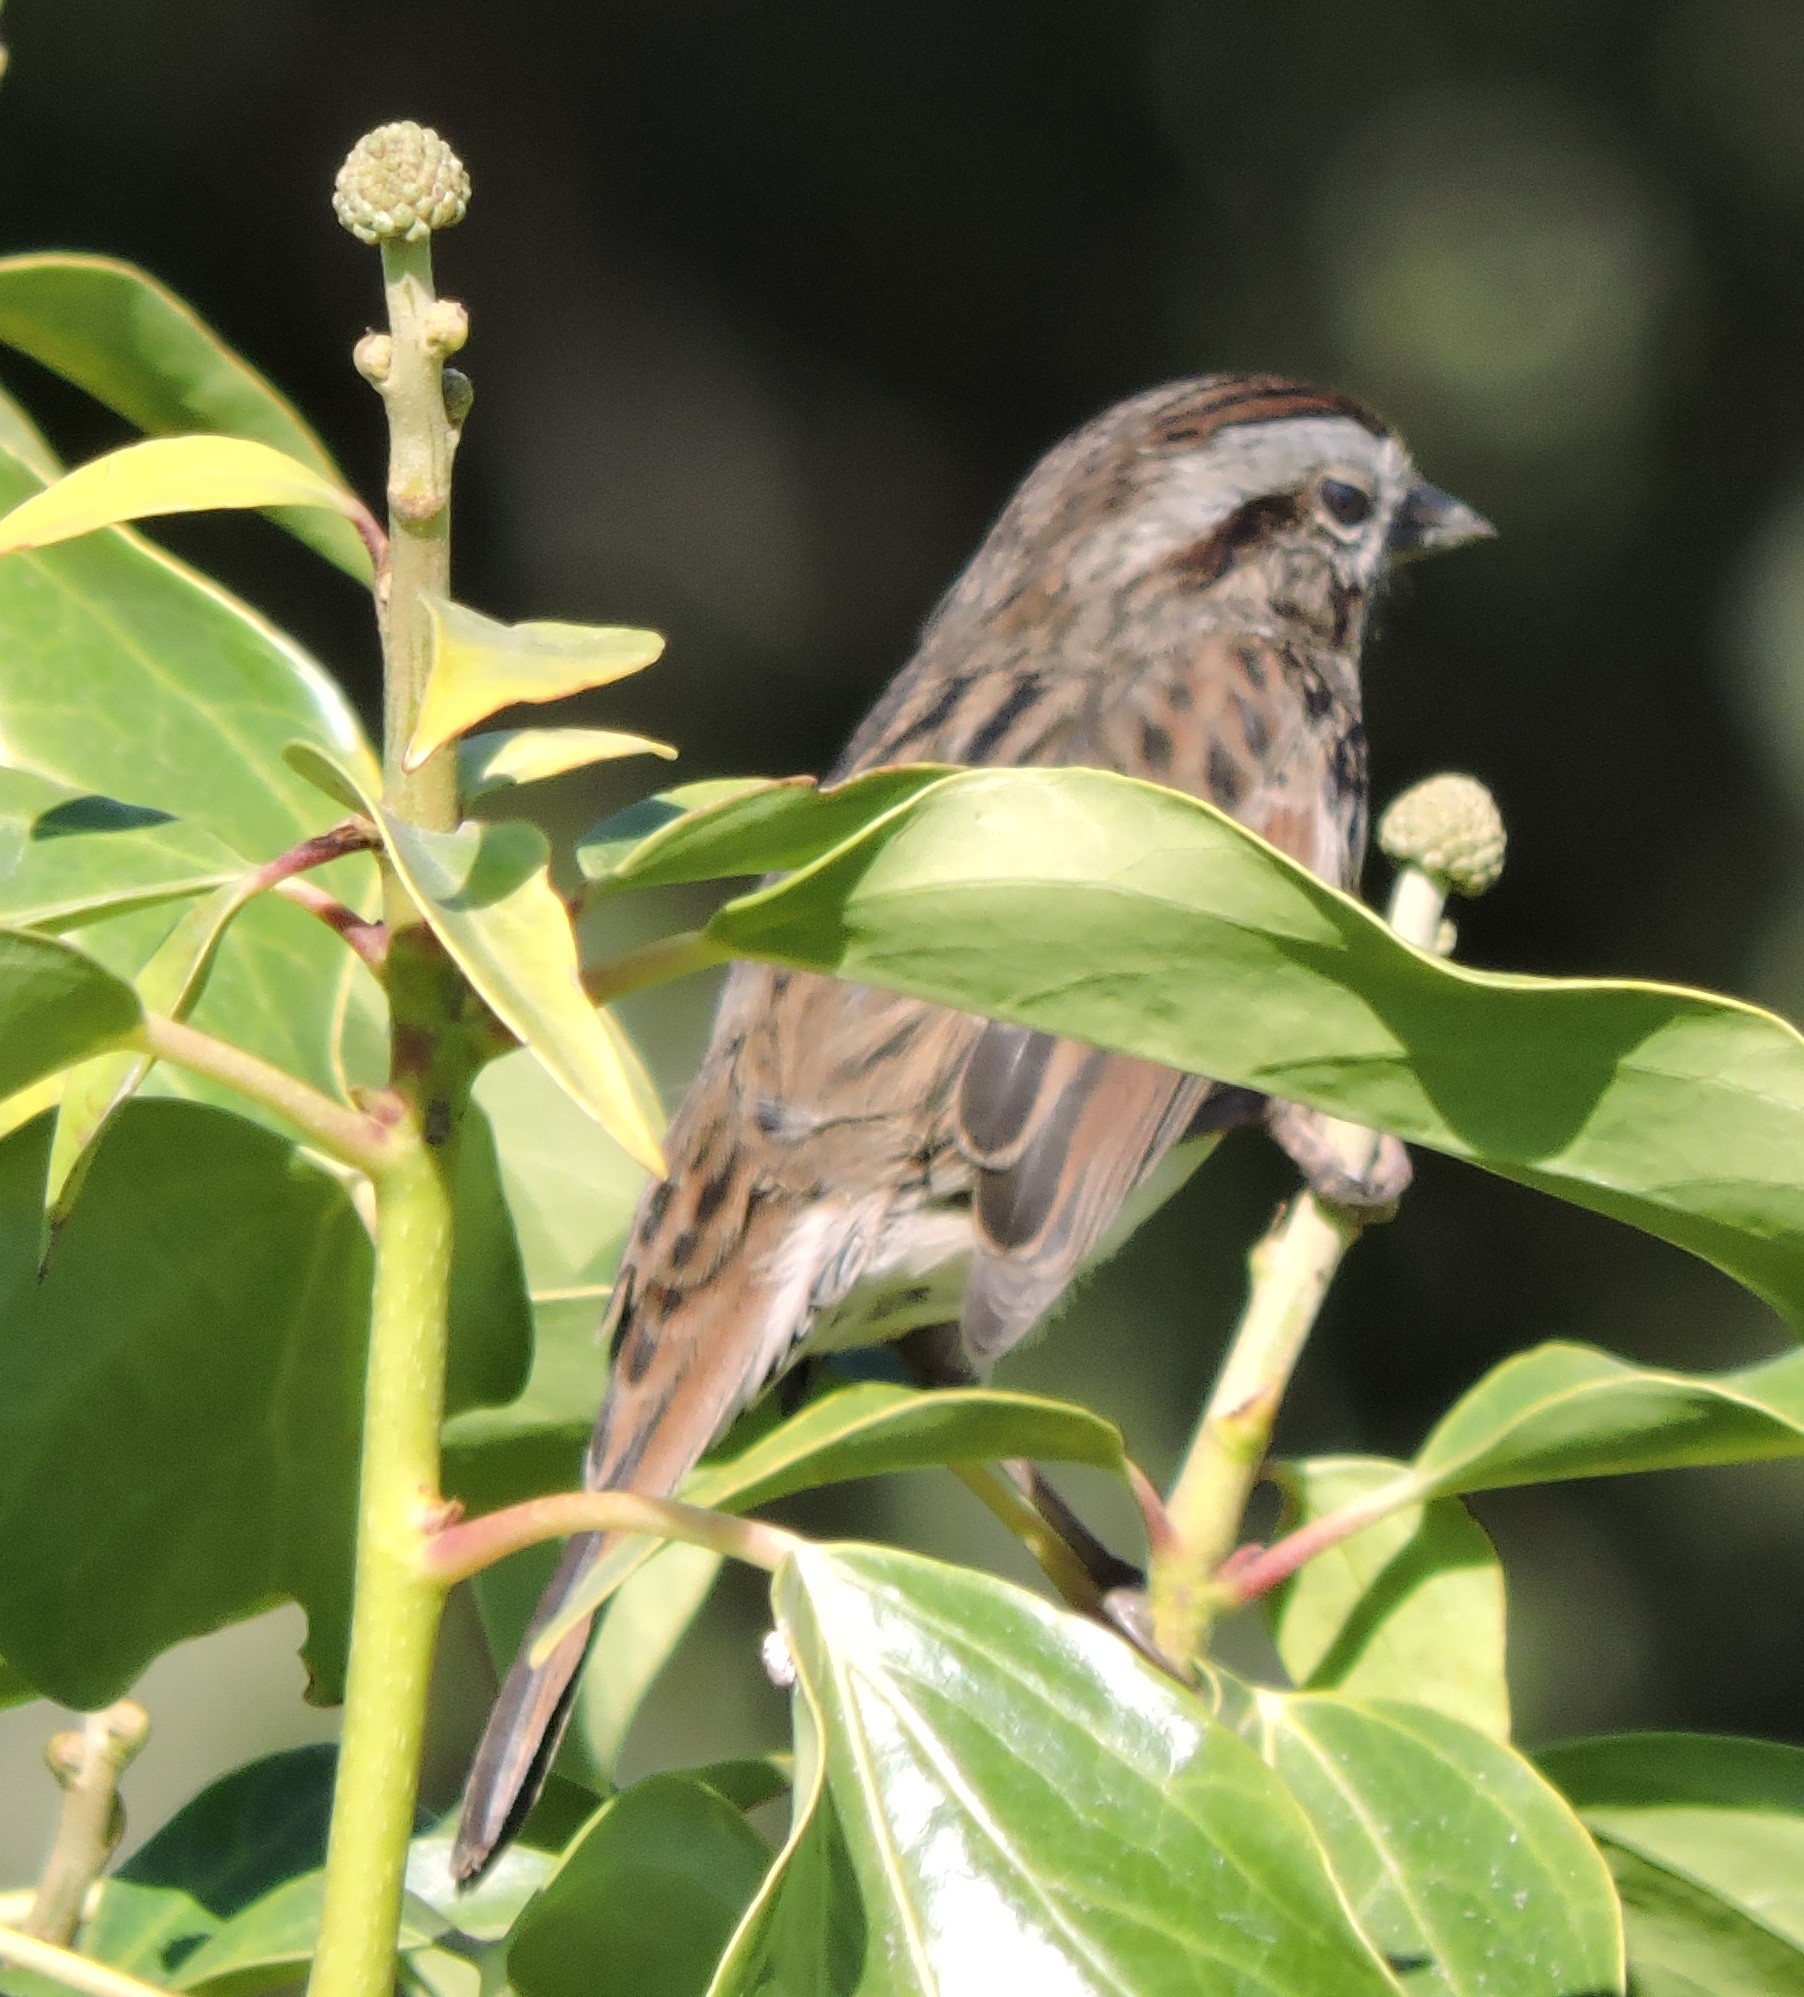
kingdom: Animalia
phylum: Chordata
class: Aves
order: Passeriformes
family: Passerellidae
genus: Melospiza
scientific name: Melospiza melodia
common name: Song sparrow
